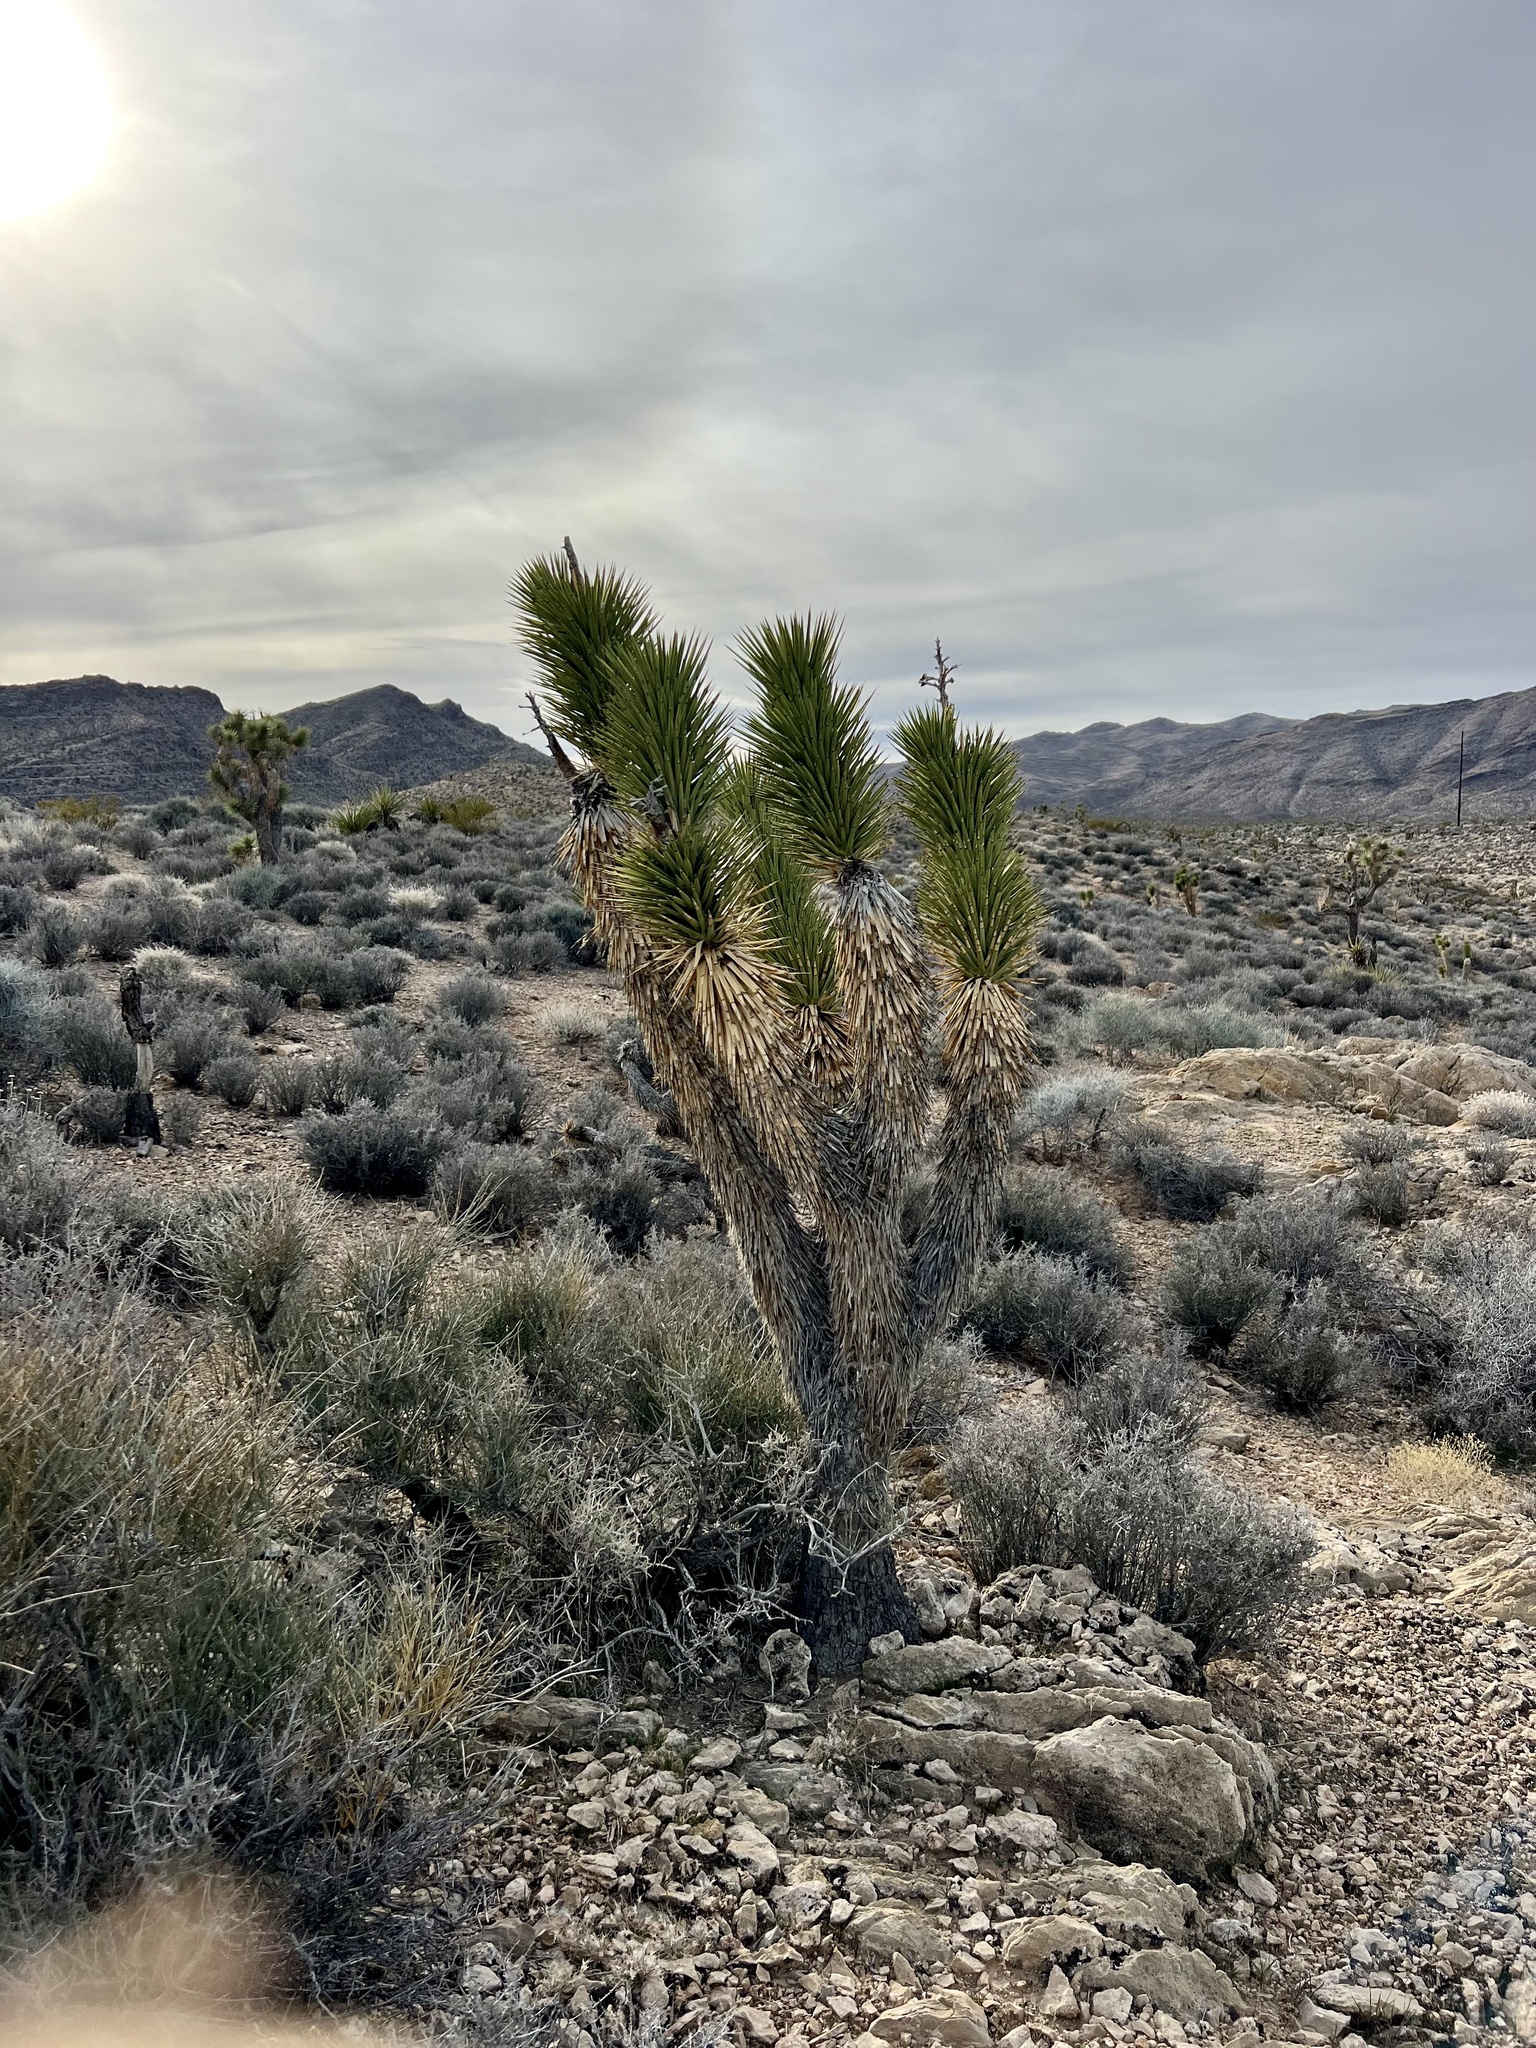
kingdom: Plantae
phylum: Tracheophyta
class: Liliopsida
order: Asparagales
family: Asparagaceae
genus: Yucca
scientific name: Yucca brevifolia
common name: Joshua tree
